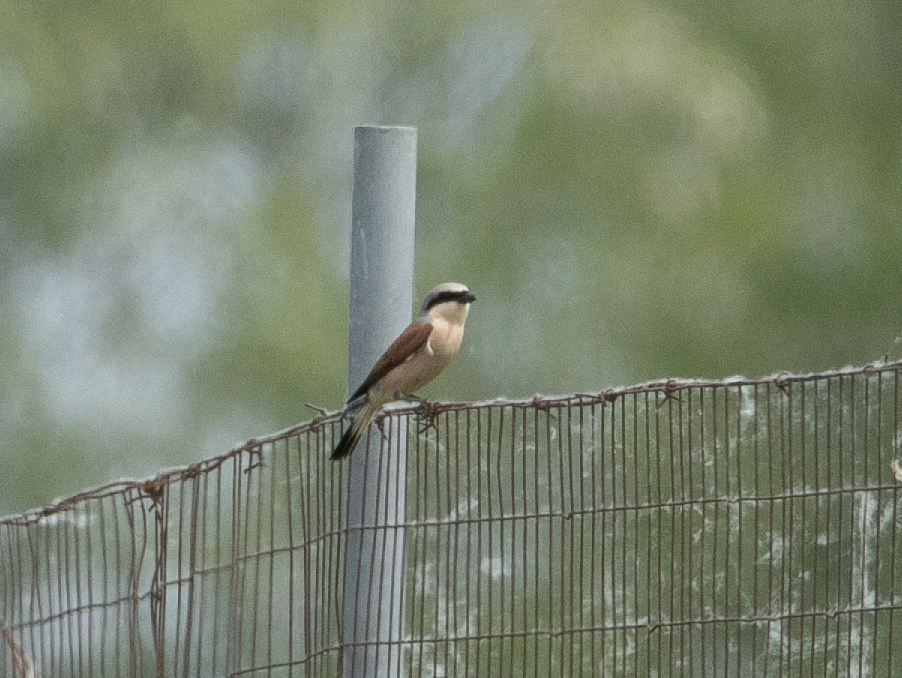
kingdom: Animalia
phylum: Chordata
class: Aves
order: Passeriformes
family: Laniidae
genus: Lanius
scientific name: Lanius collurio
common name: Red-backed shrike
